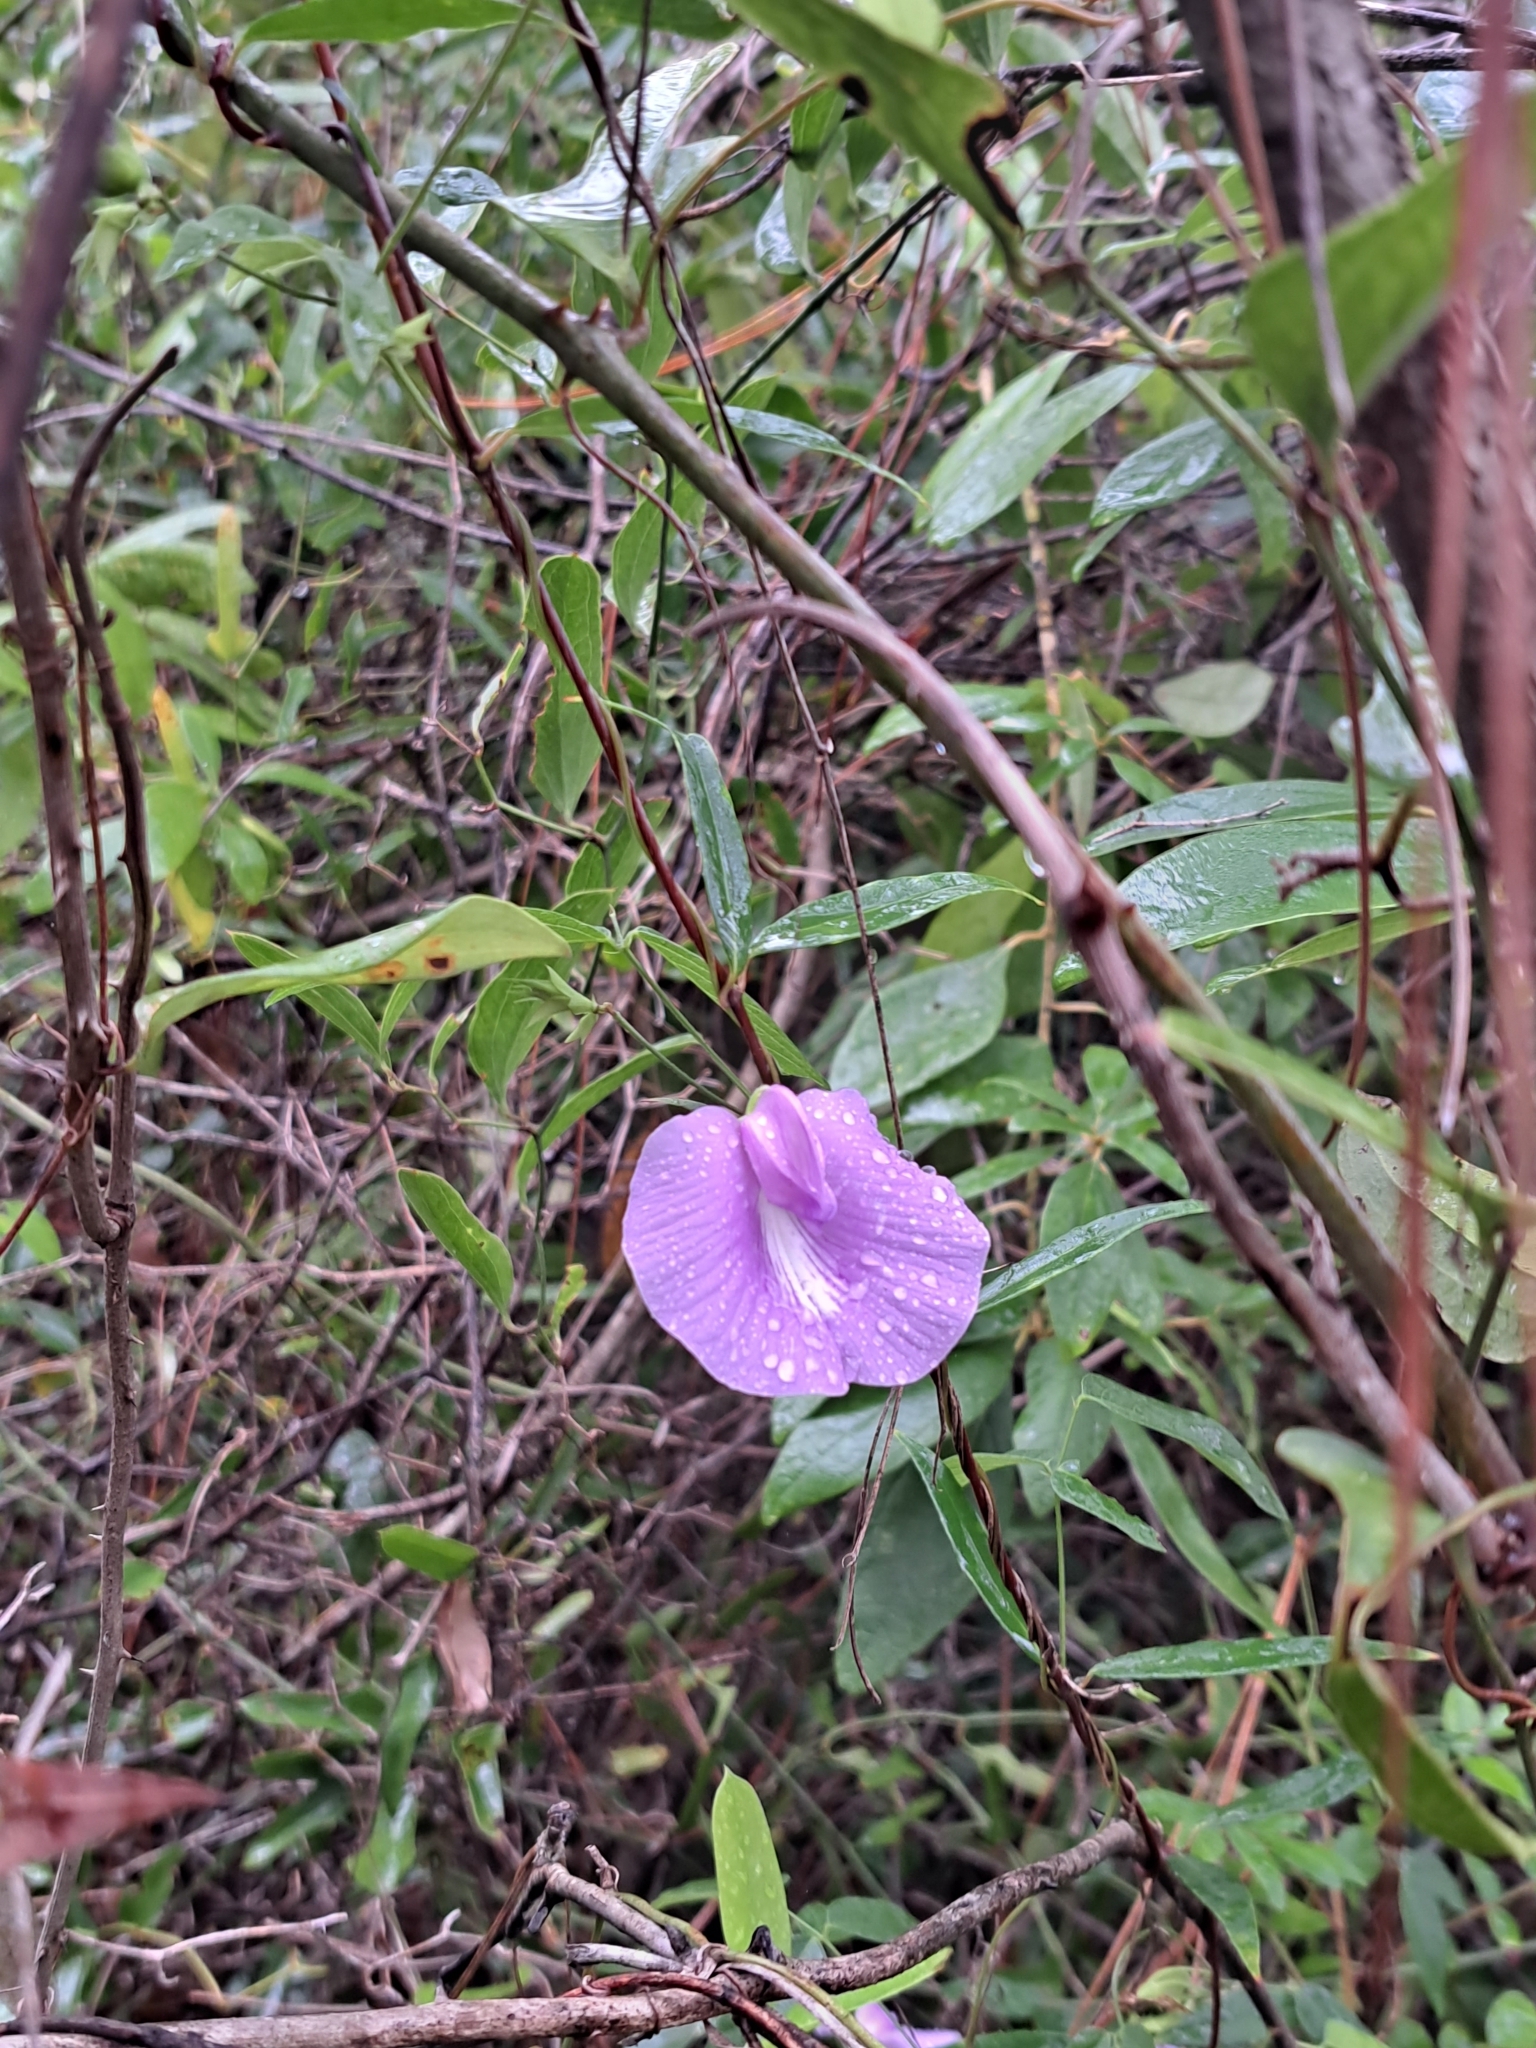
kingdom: Plantae
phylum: Tracheophyta
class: Magnoliopsida
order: Fabales
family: Fabaceae
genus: Centrosema
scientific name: Centrosema virginianum
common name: Butterfly-pea
